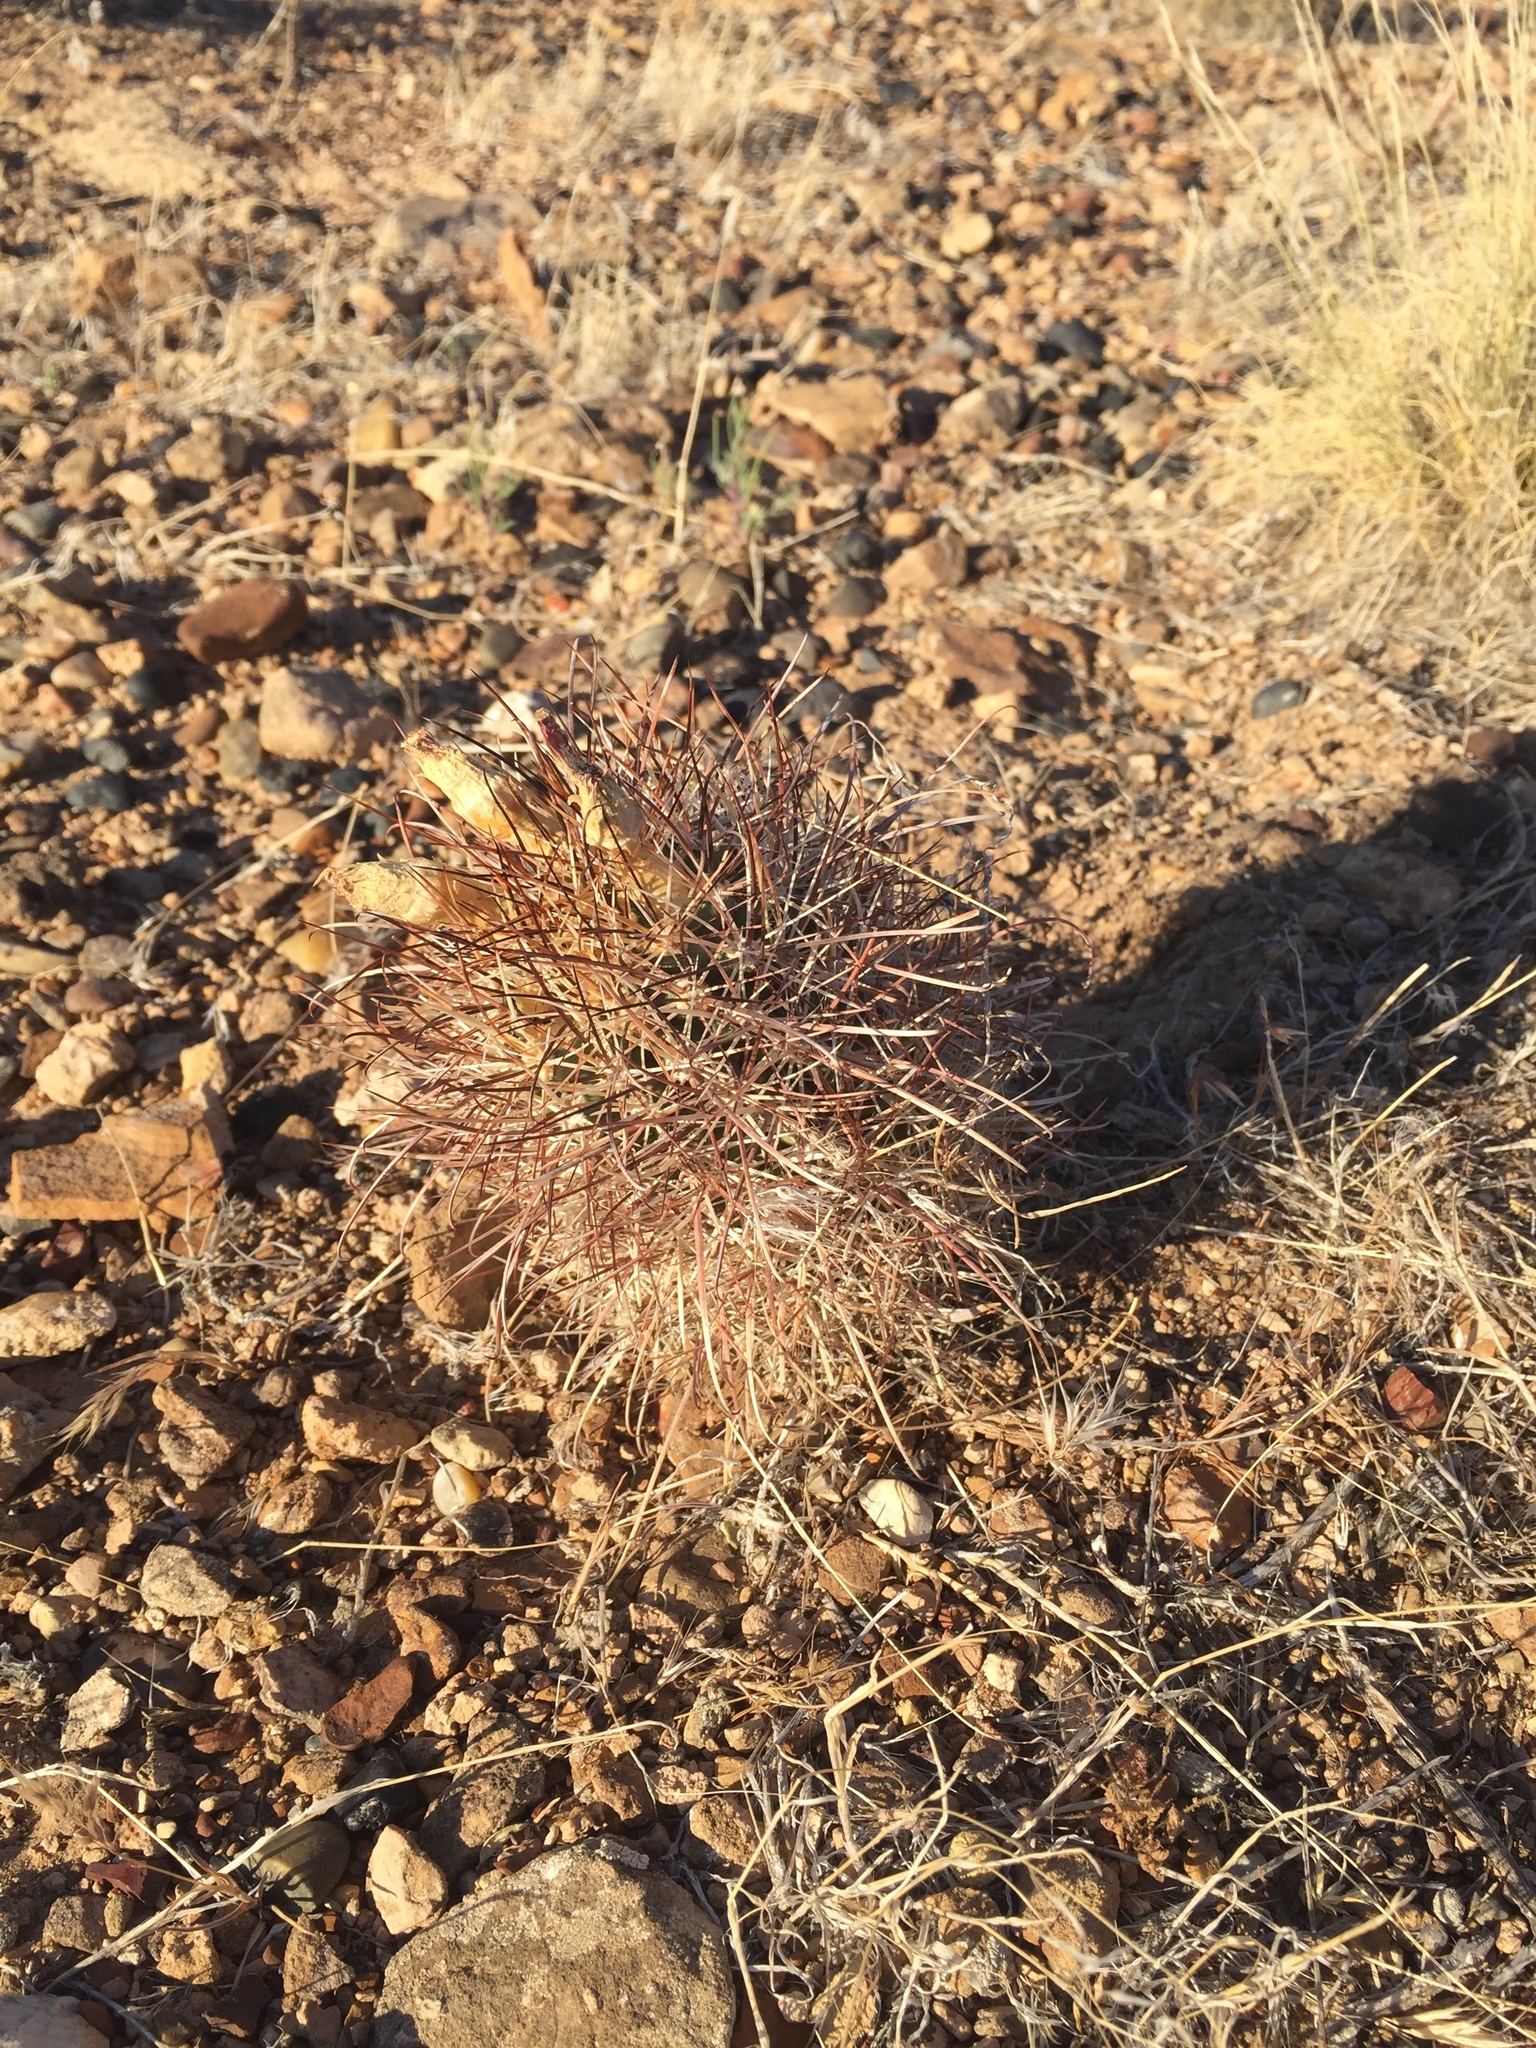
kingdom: Plantae
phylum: Tracheophyta
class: Magnoliopsida
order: Caryophyllales
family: Cactaceae
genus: Sclerocactus
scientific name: Sclerocactus parviflorus
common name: Small-flower fishhook cactus
